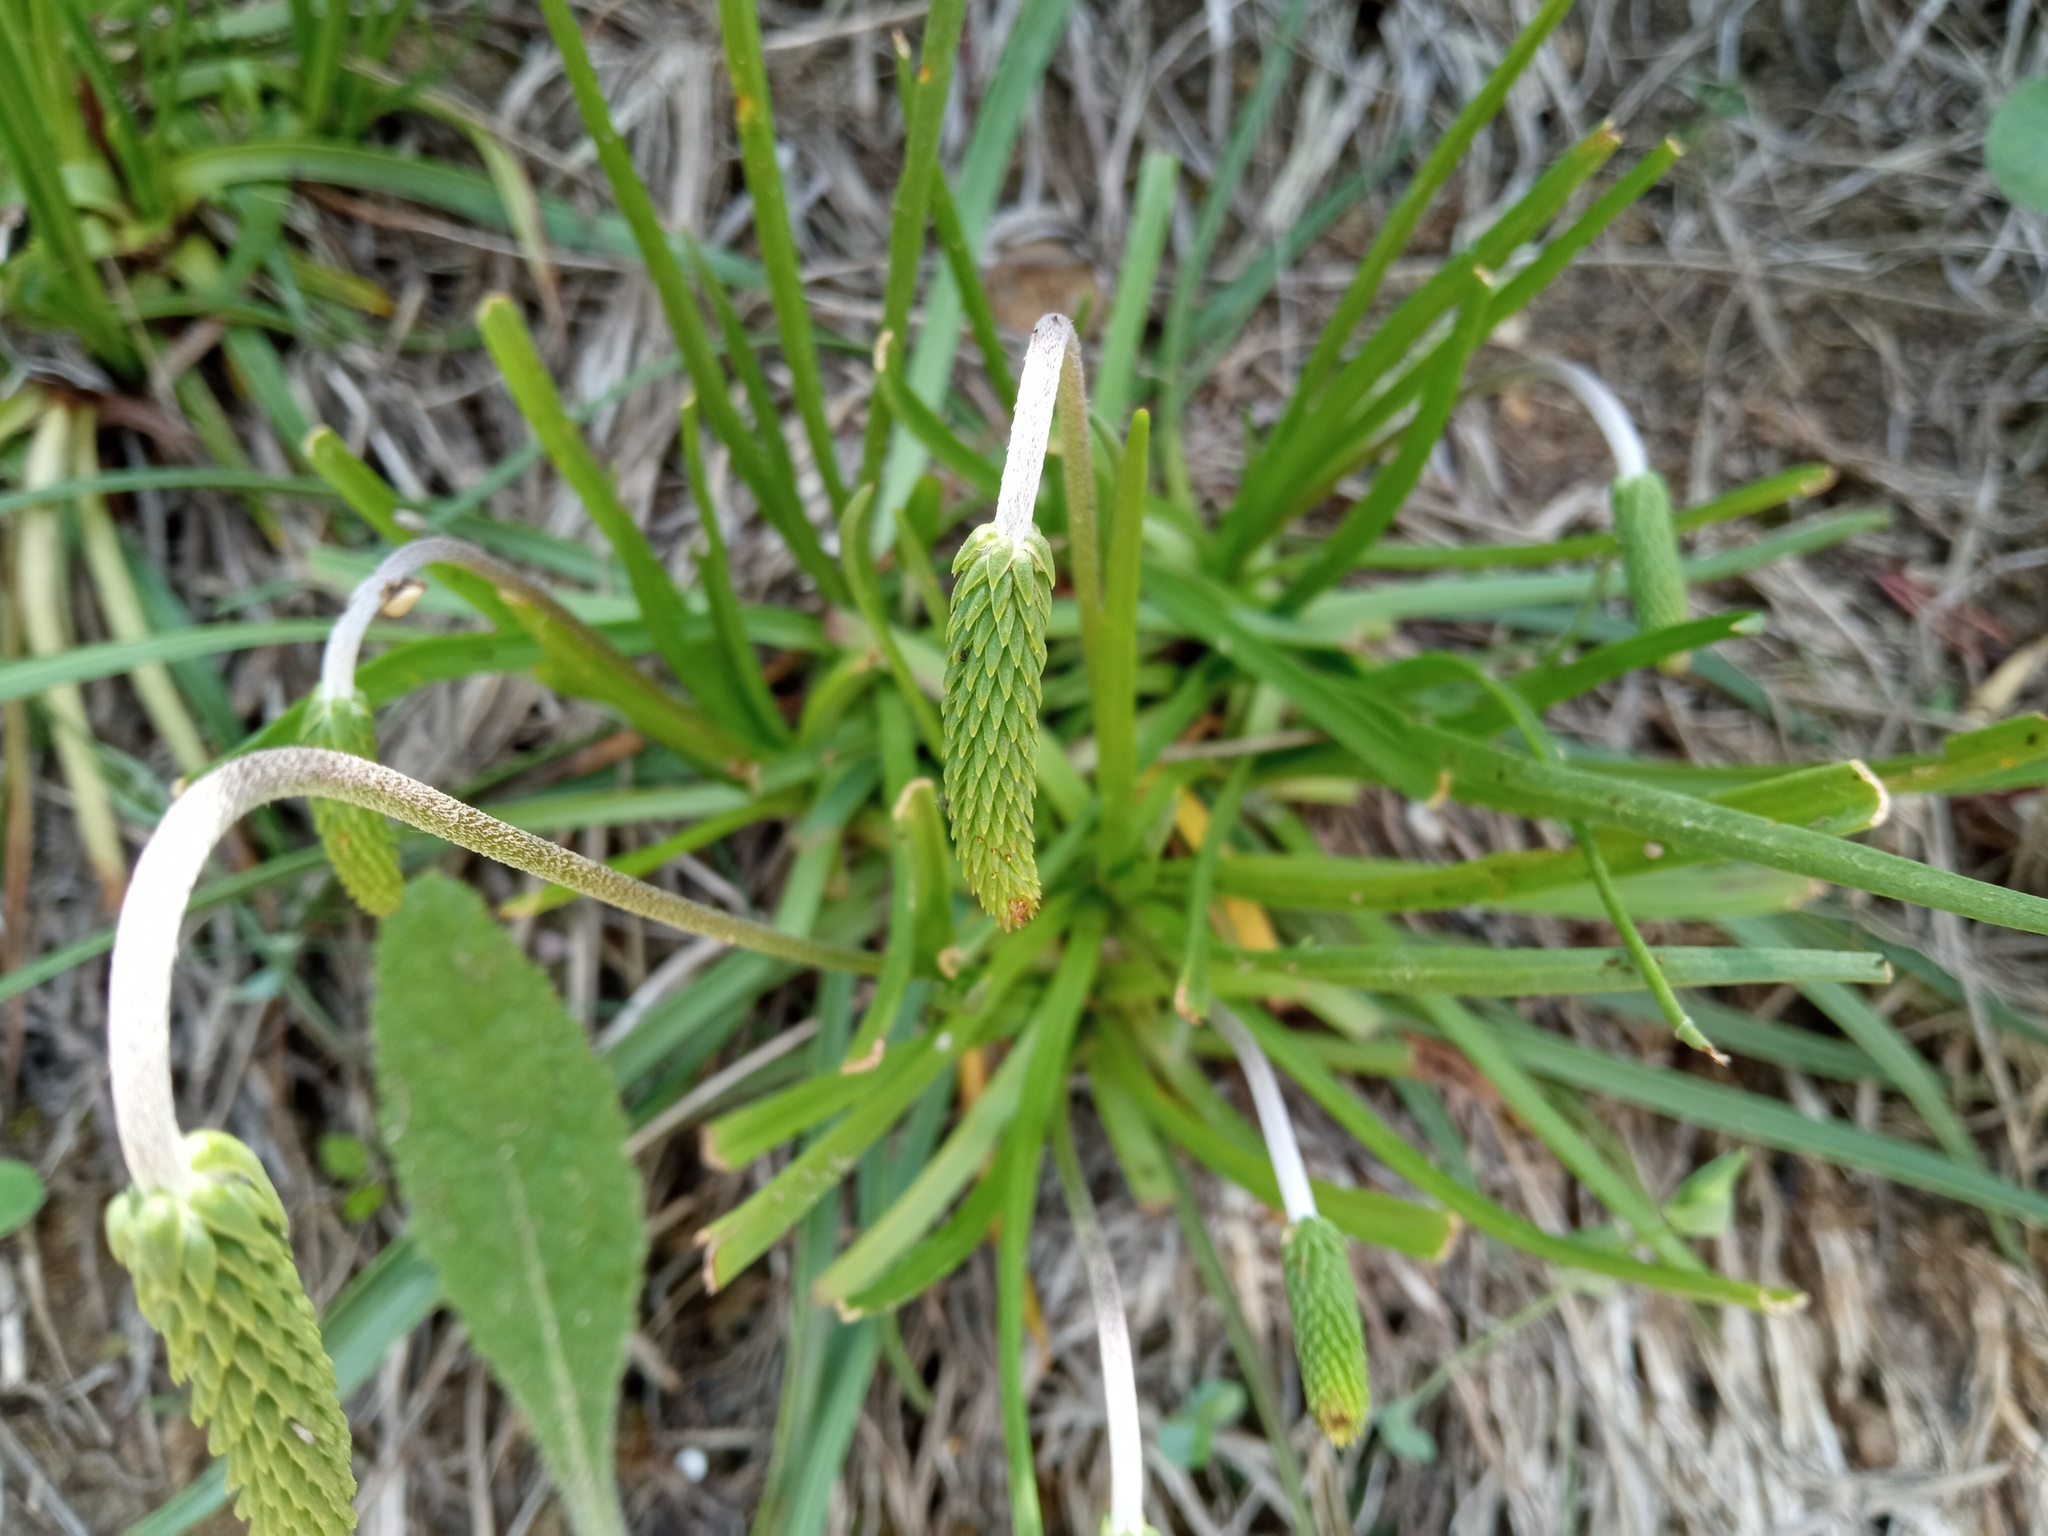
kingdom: Plantae
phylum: Tracheophyta
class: Magnoliopsida
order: Lamiales
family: Plantaginaceae
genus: Plantago
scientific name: Plantago
